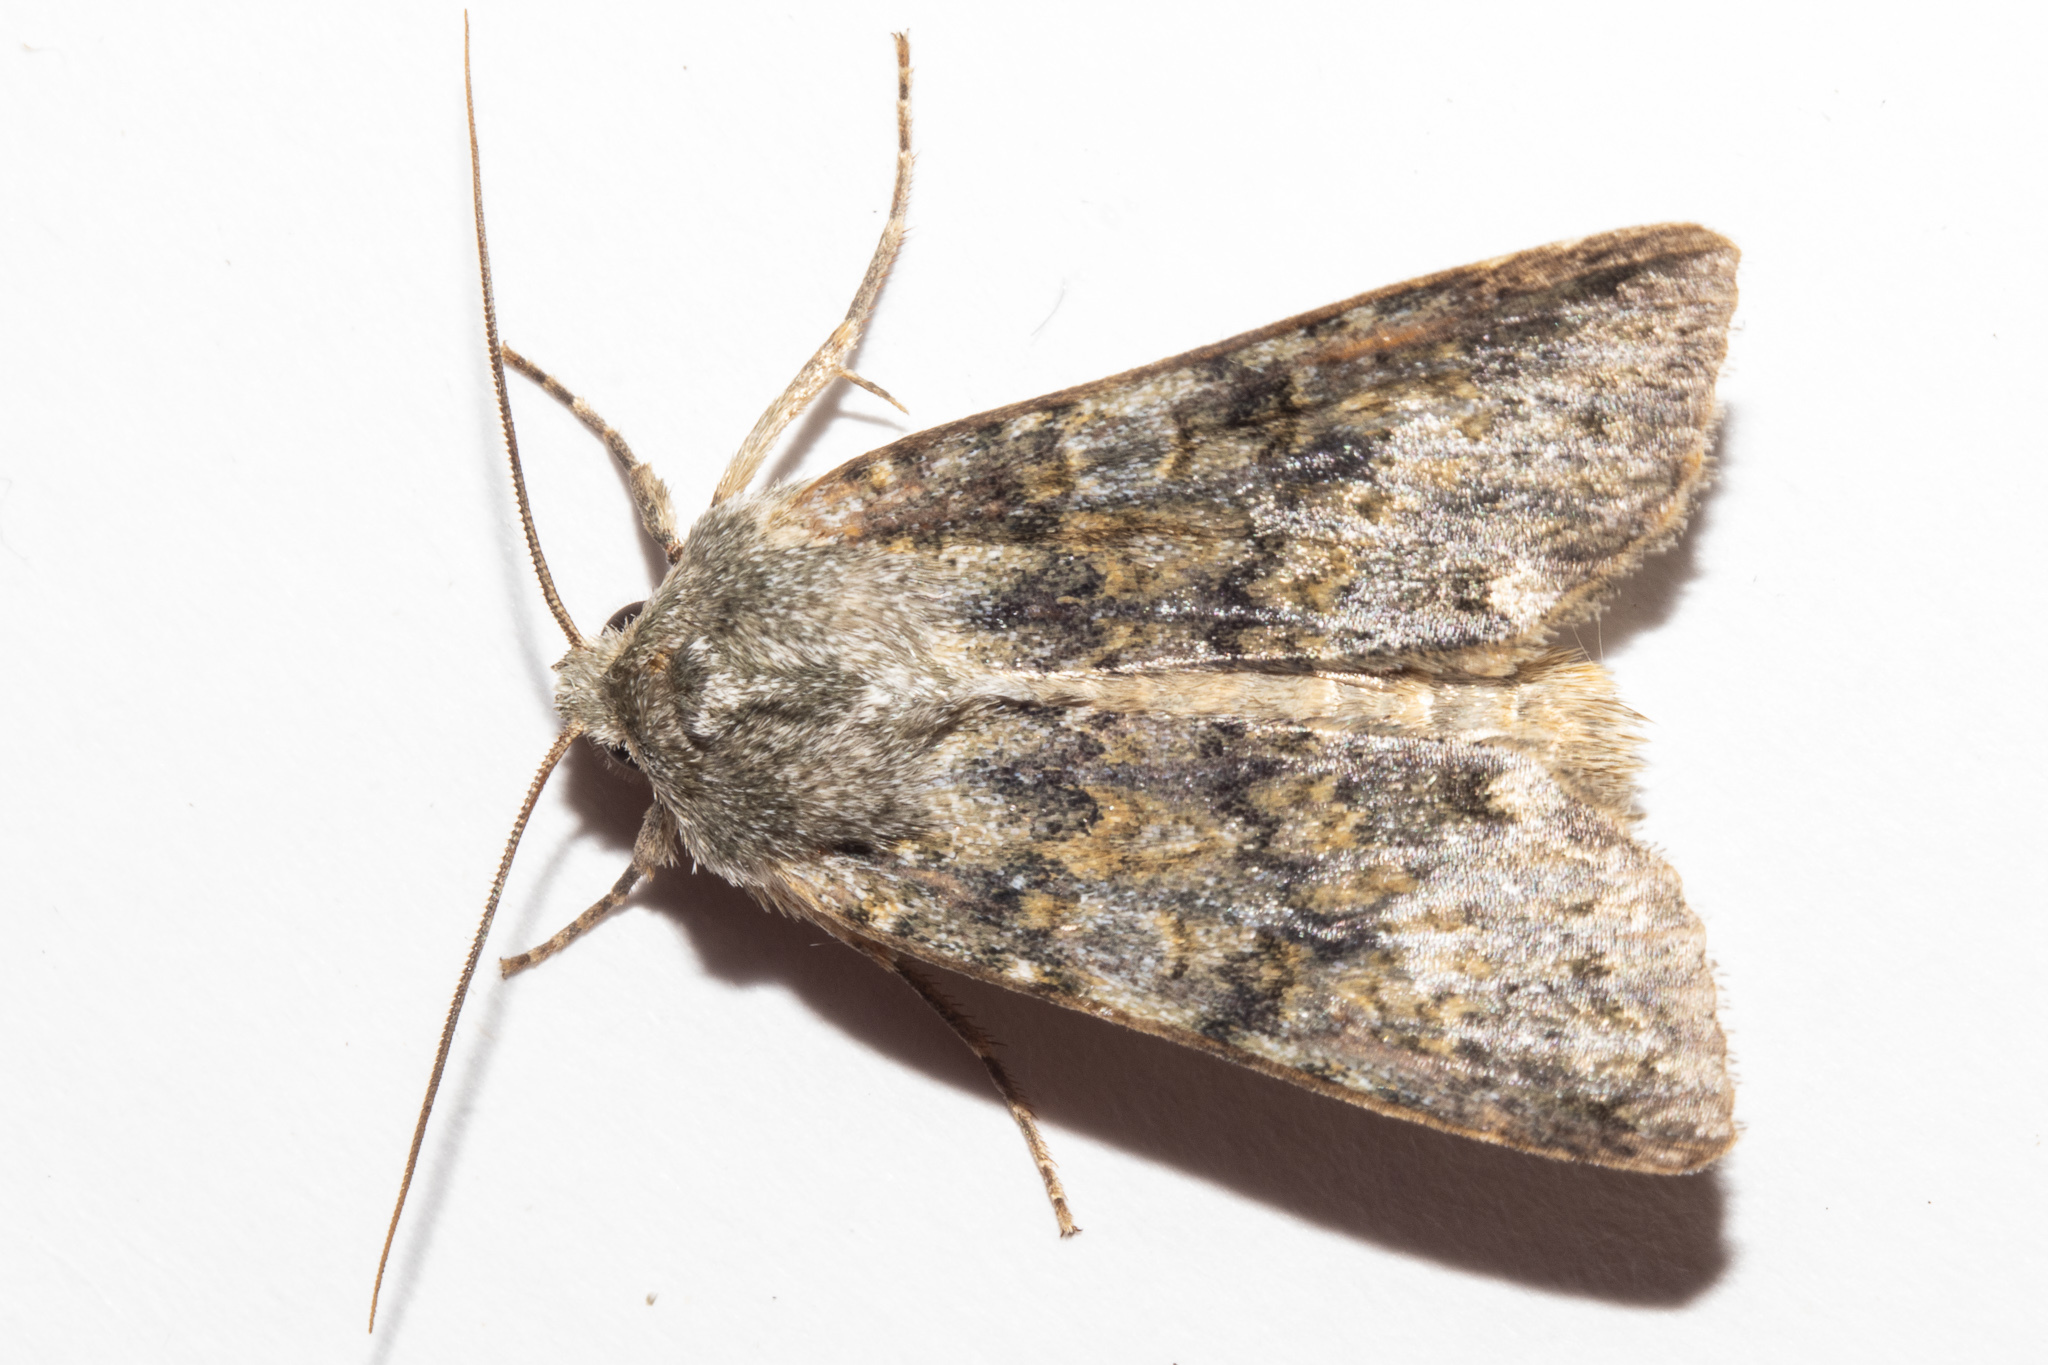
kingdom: Animalia
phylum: Arthropoda
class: Insecta
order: Lepidoptera
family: Noctuidae
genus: Ichneutica
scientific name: Ichneutica
